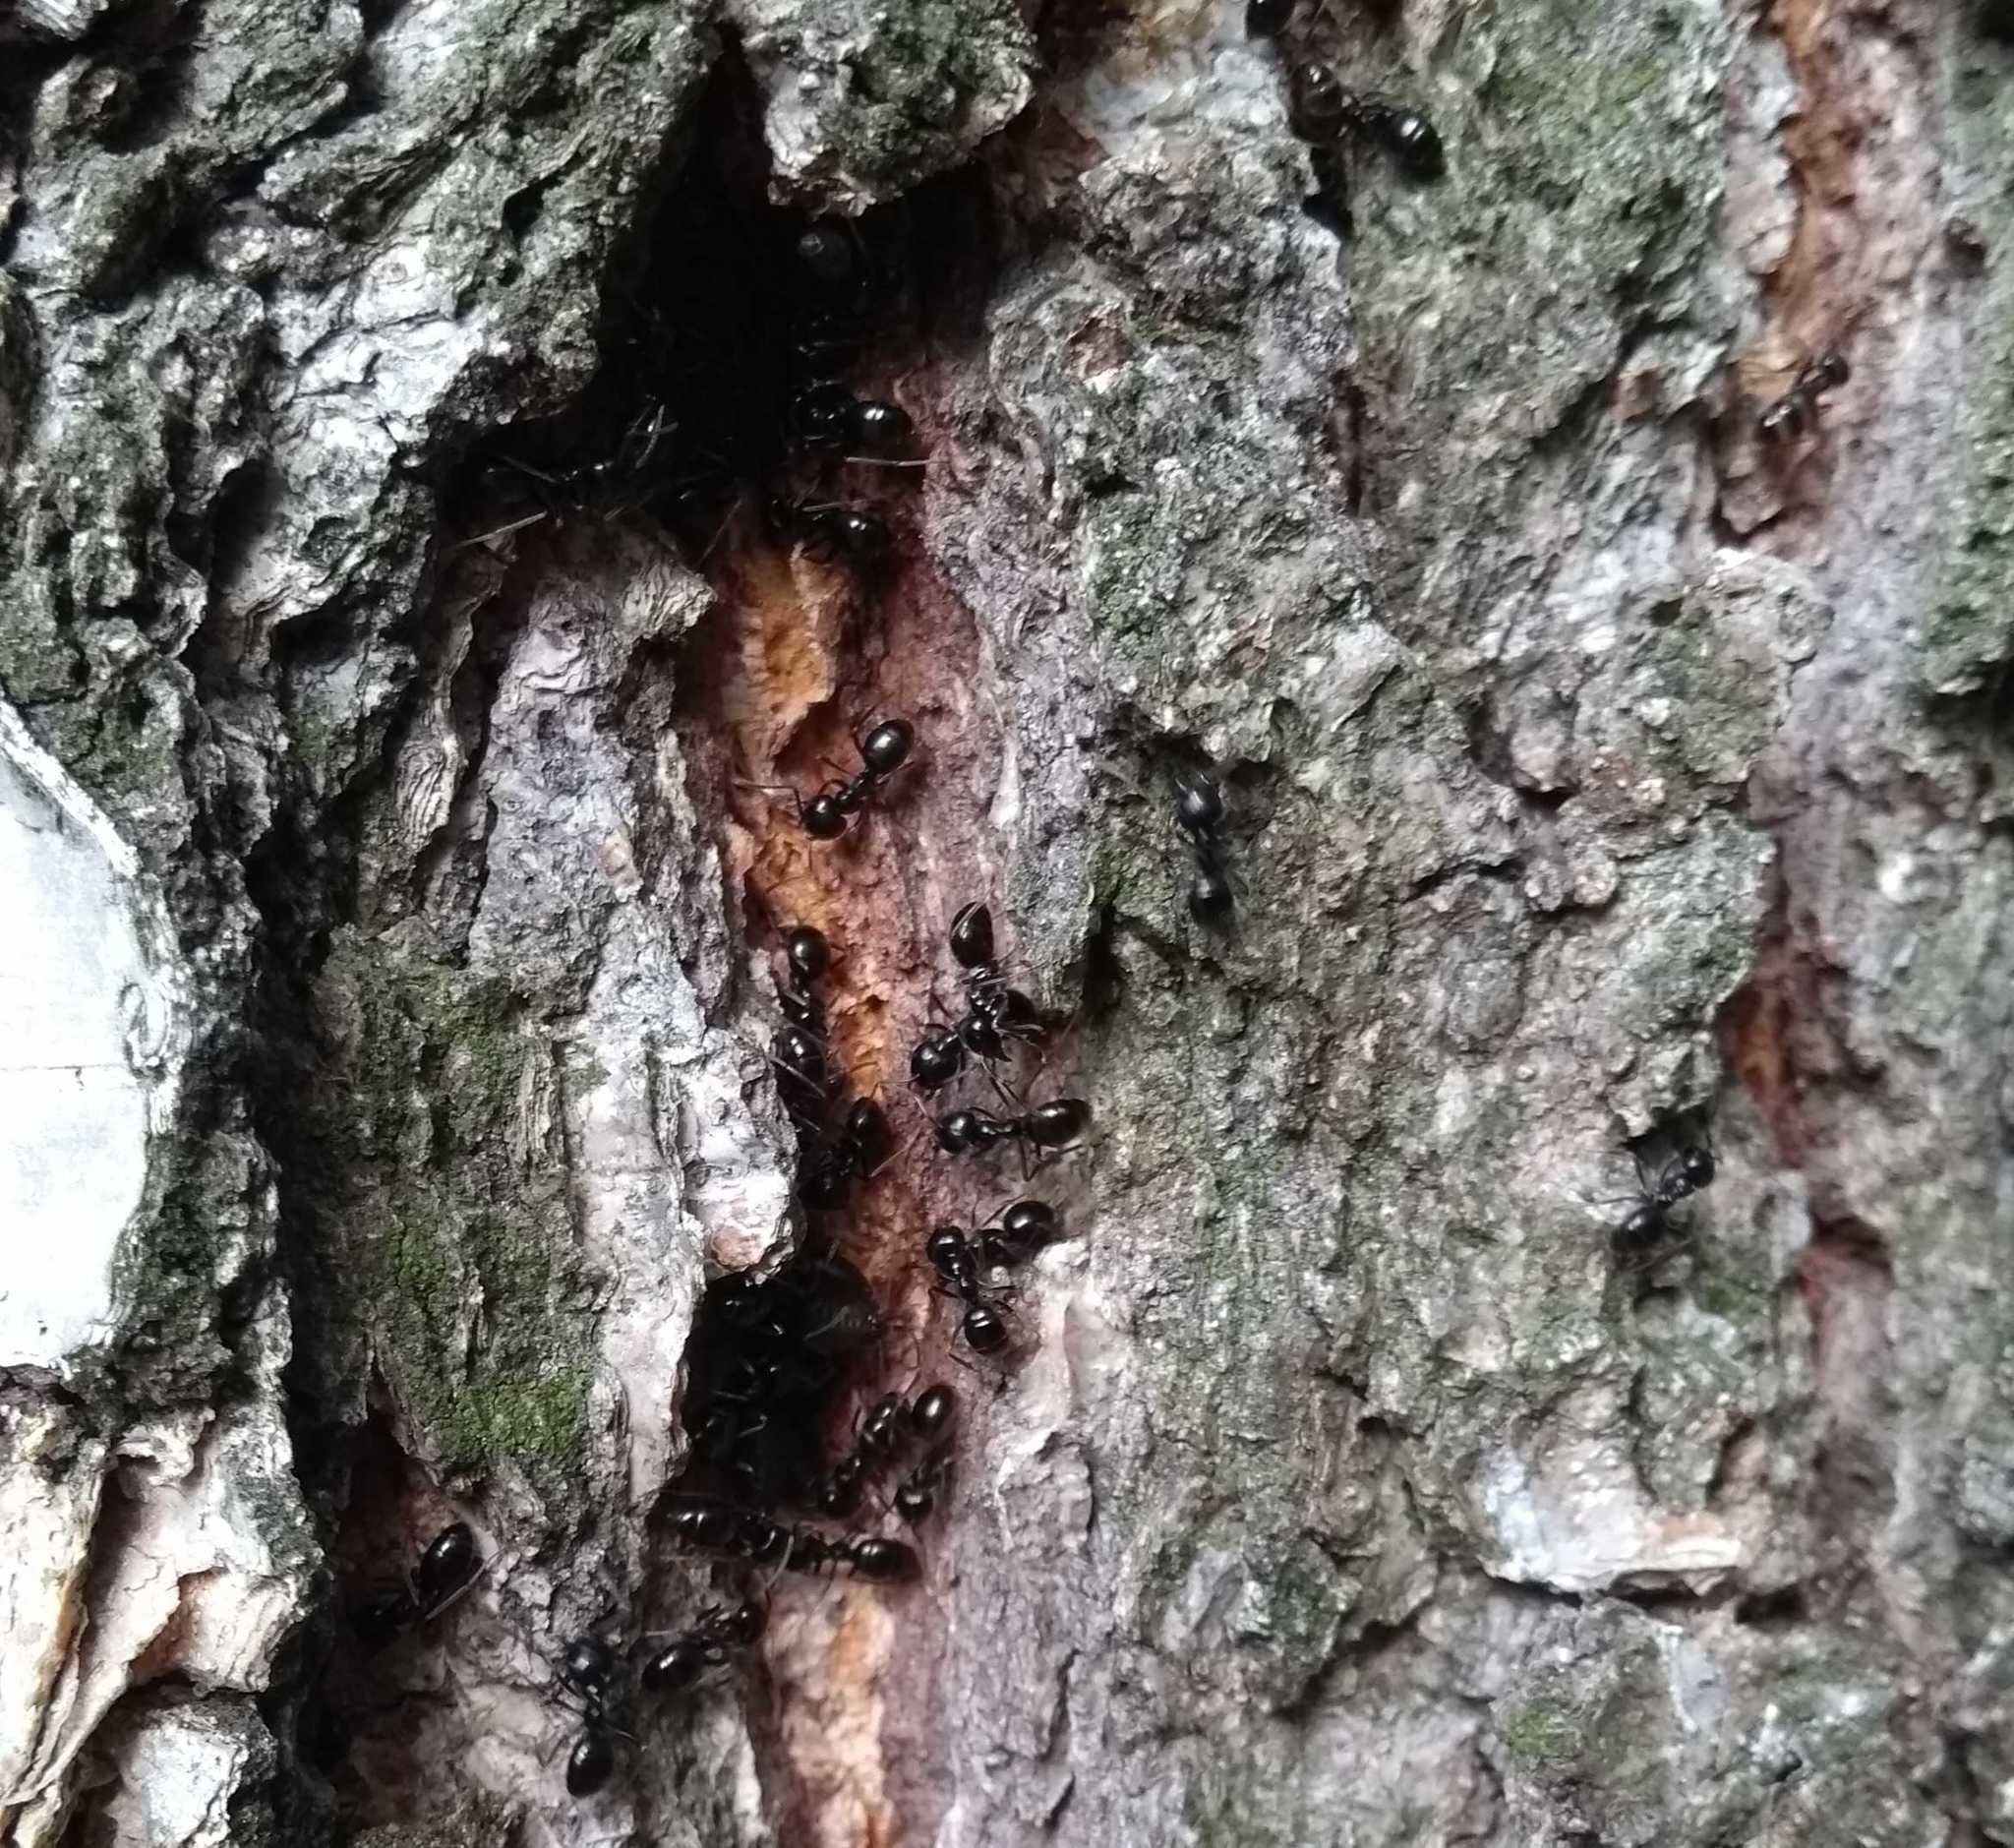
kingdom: Animalia
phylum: Arthropoda
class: Insecta
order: Hymenoptera
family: Formicidae
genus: Lasius
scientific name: Lasius fuliginosus
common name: Jet ant
